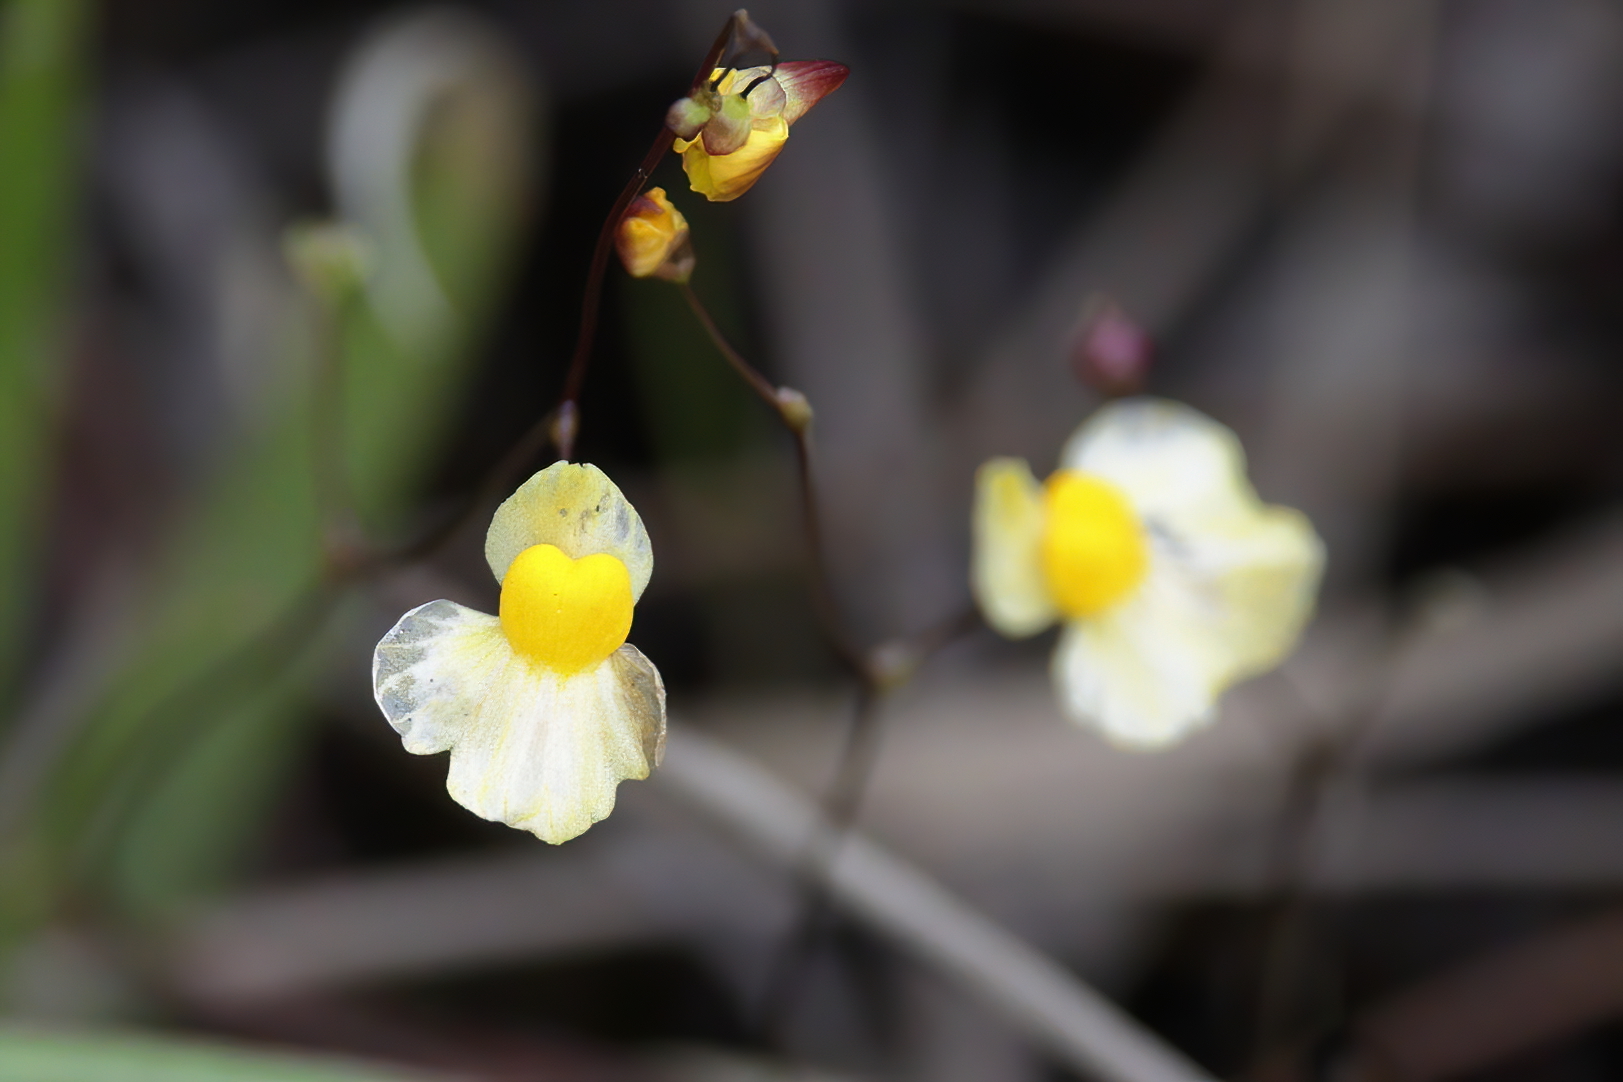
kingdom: Plantae
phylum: Tracheophyta
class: Magnoliopsida
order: Lamiales
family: Lentibulariaceae
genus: Utricularia
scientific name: Utricularia subulata
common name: Tiny bladderwort
